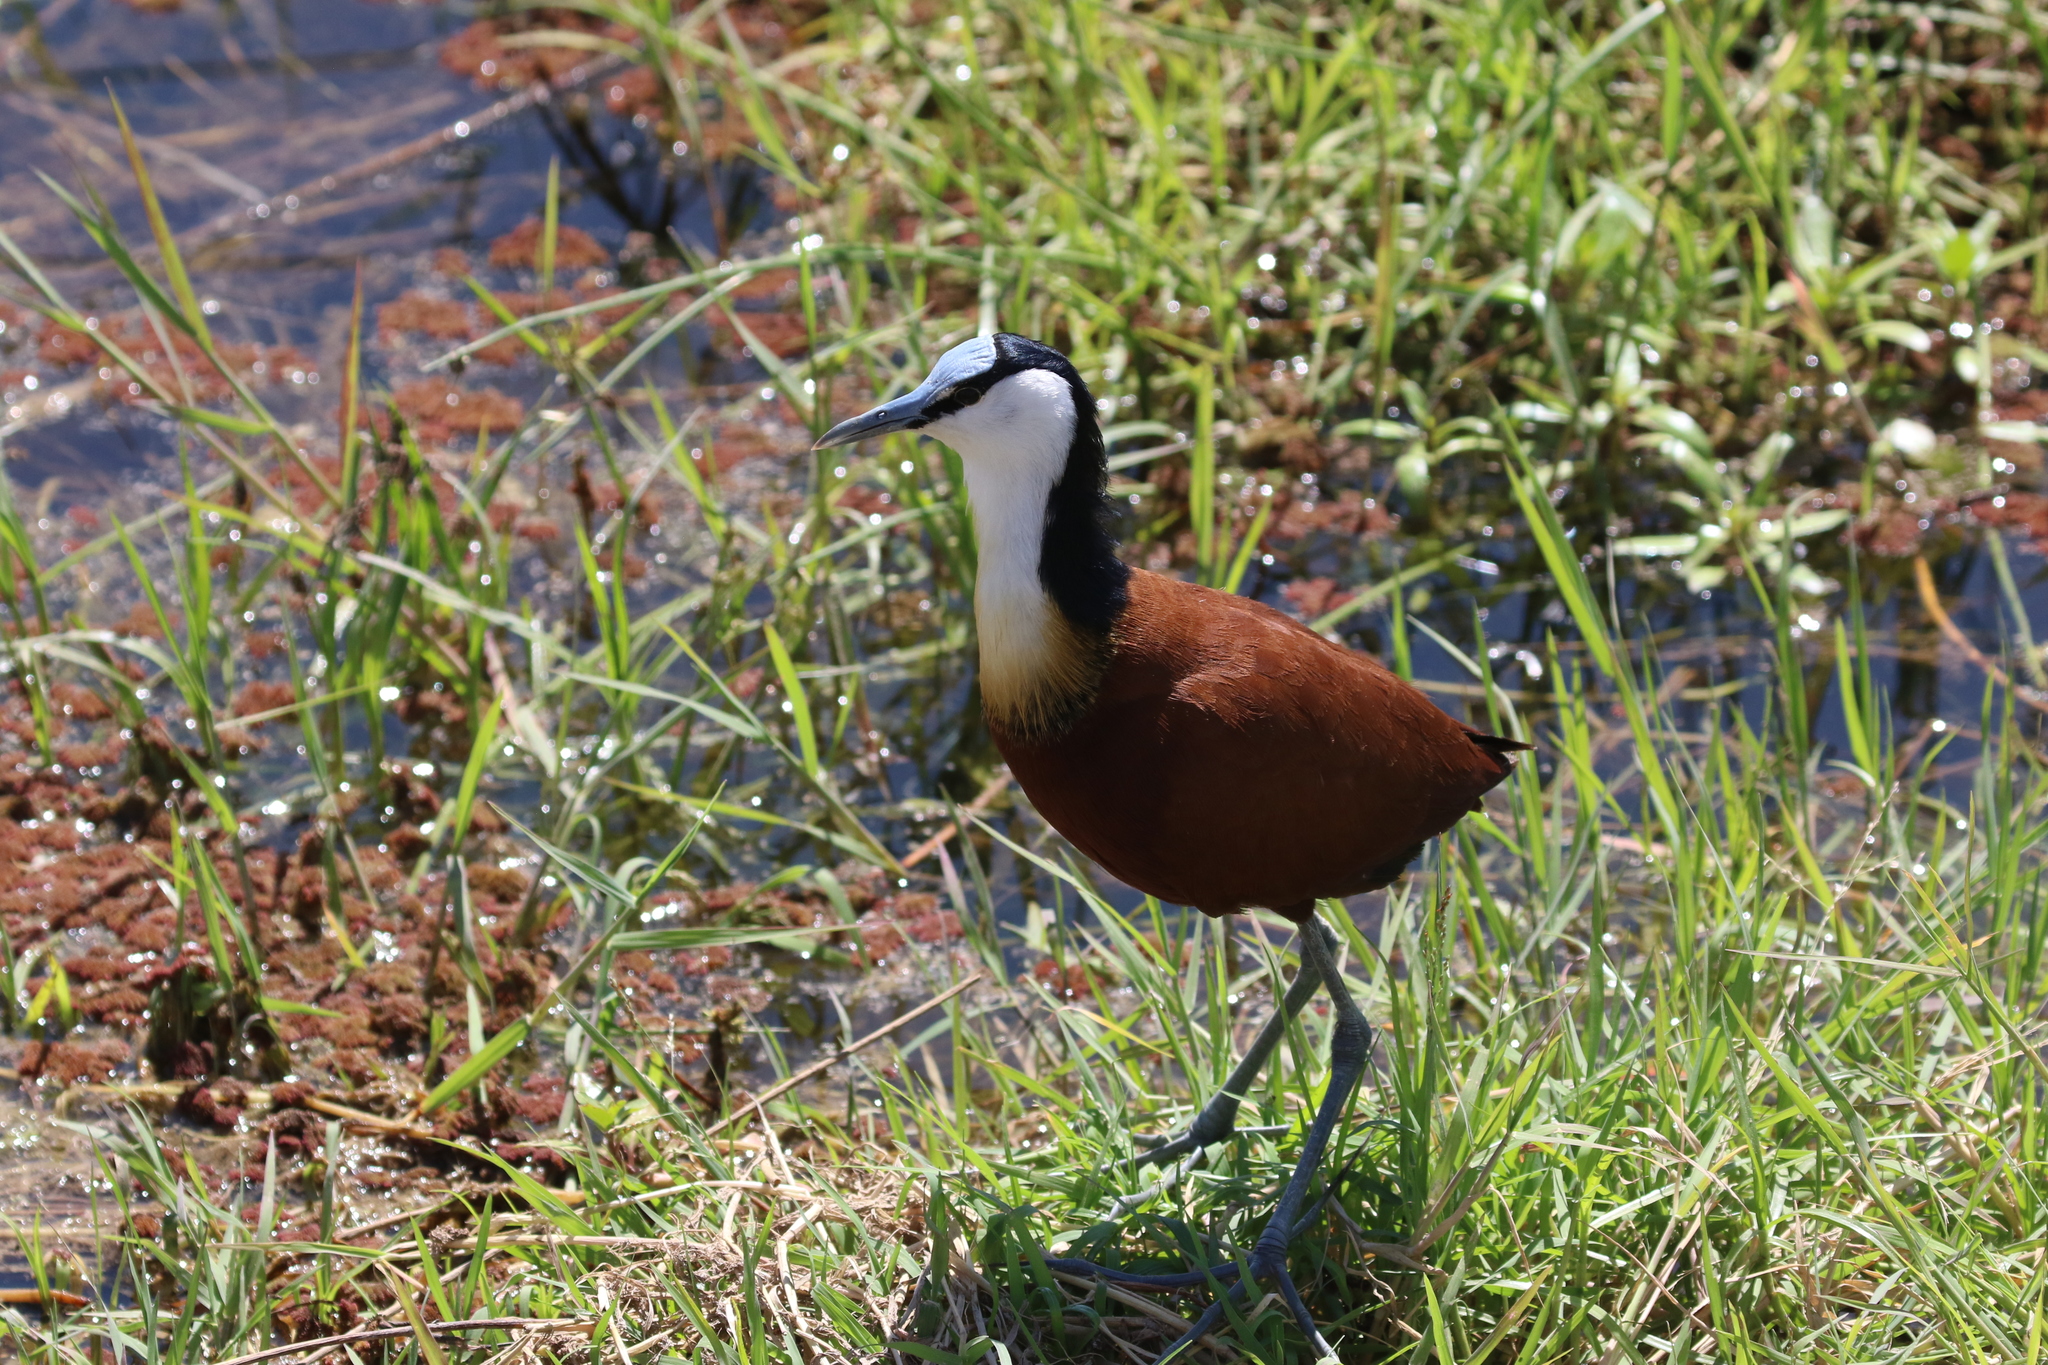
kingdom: Animalia
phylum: Chordata
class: Aves
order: Charadriiformes
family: Jacanidae
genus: Actophilornis
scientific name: Actophilornis africanus
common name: African jacana
